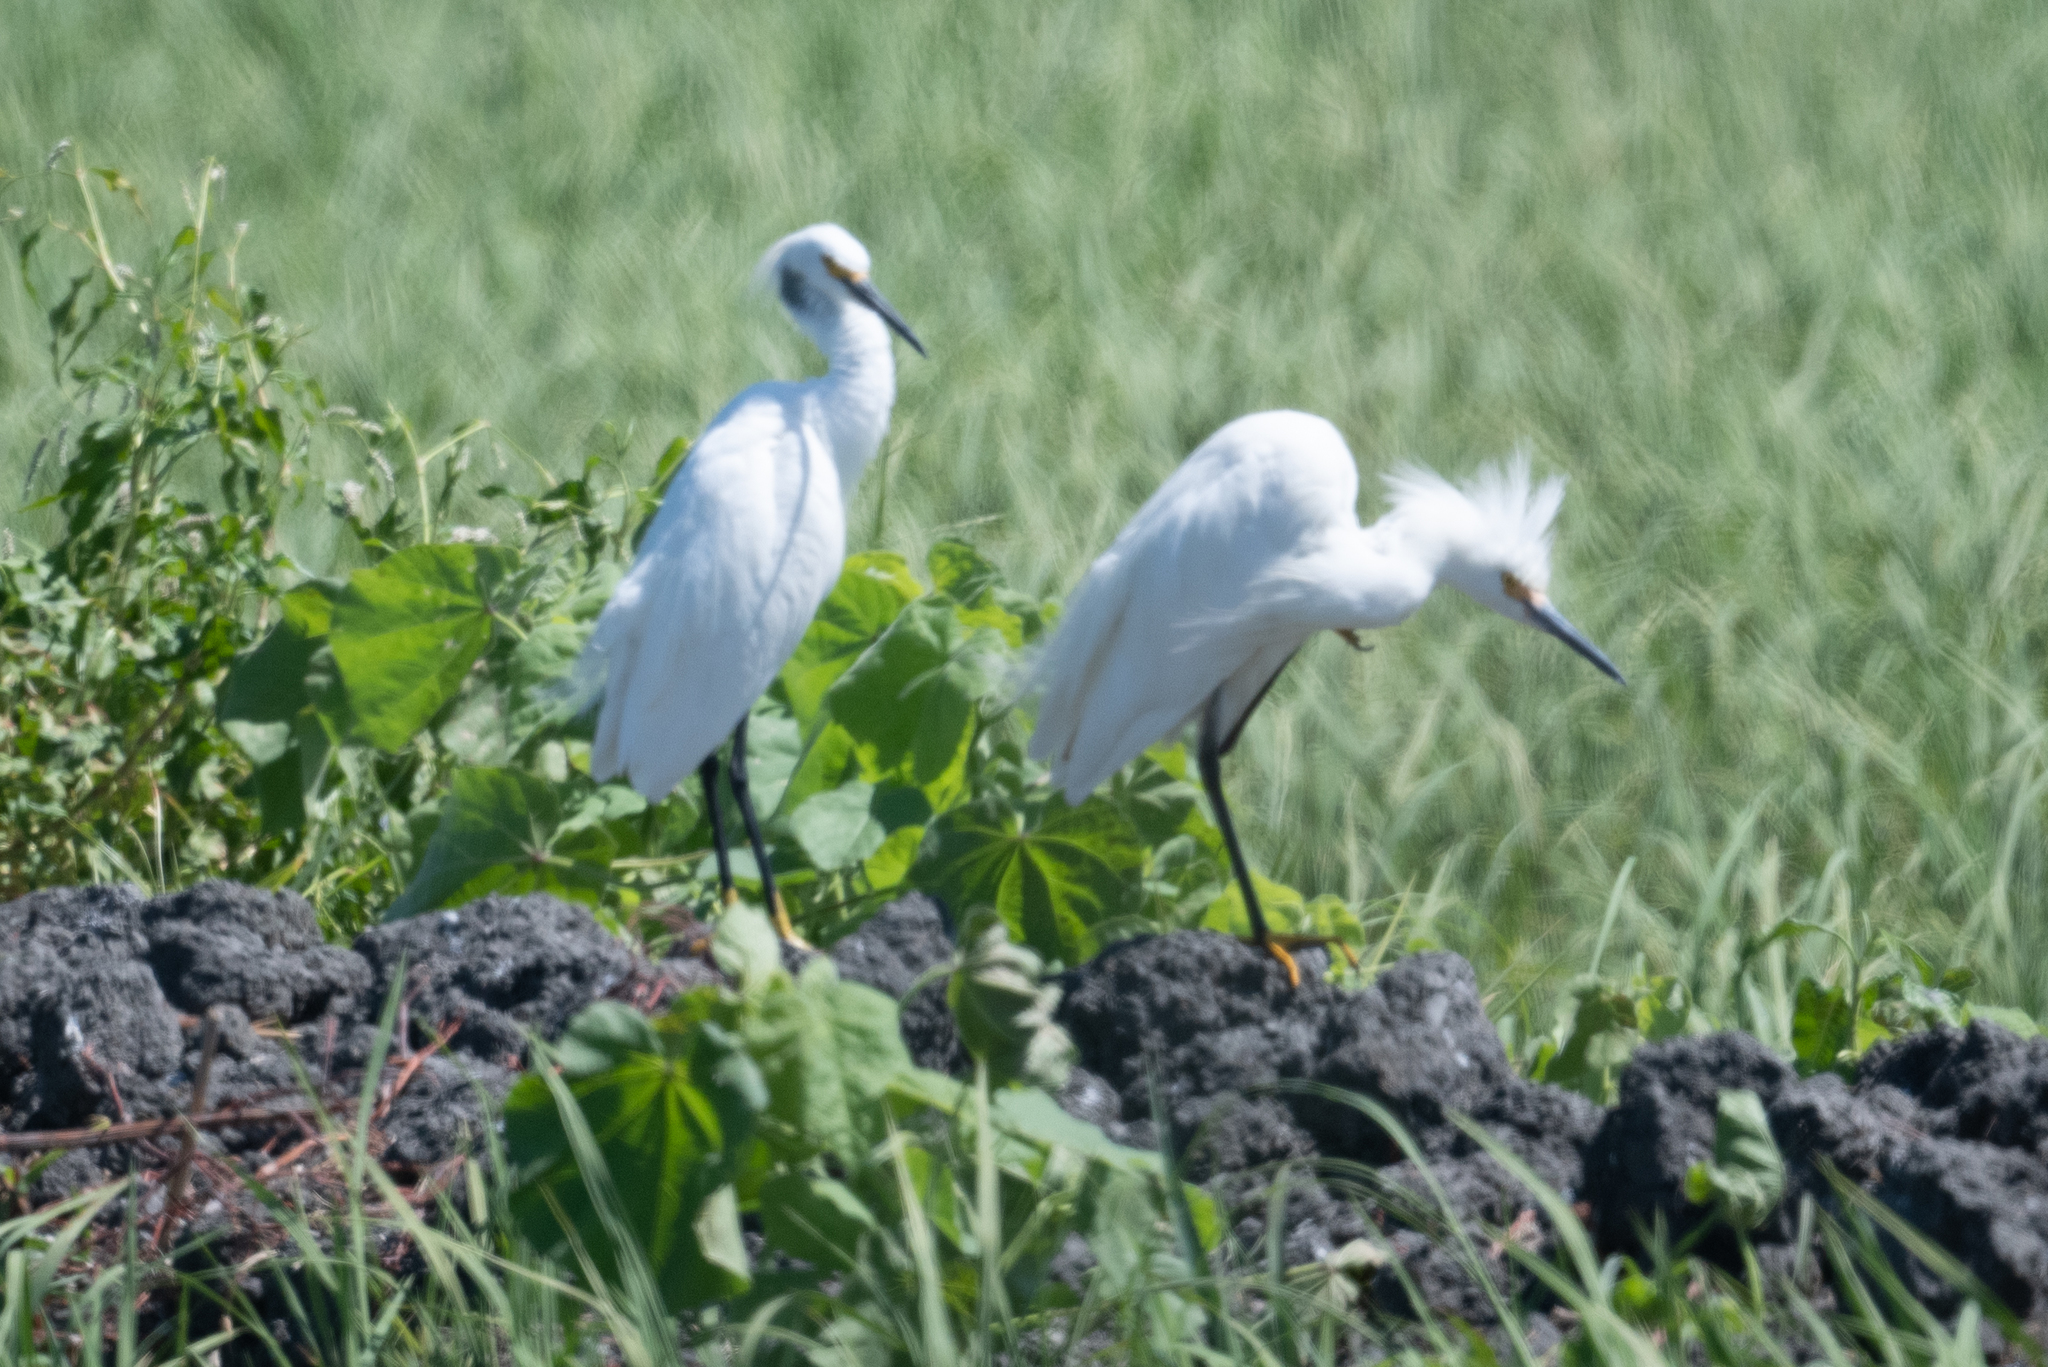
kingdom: Animalia
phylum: Chordata
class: Aves
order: Pelecaniformes
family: Ardeidae
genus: Egretta
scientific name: Egretta thula
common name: Snowy egret
